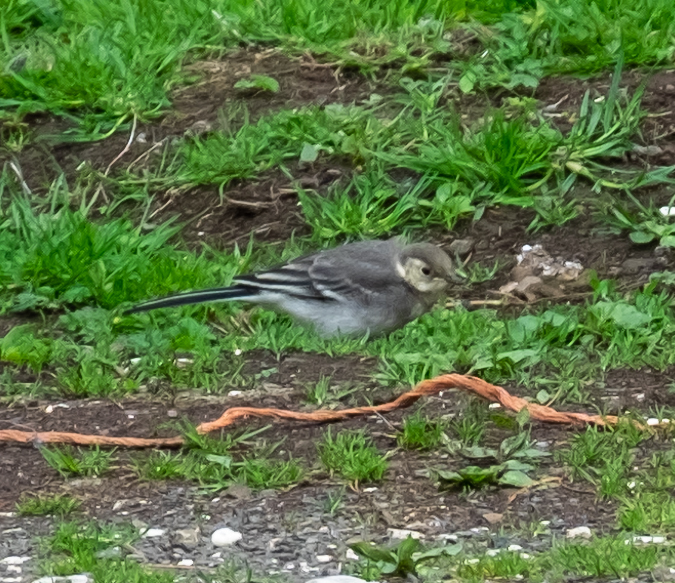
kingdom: Animalia
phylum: Chordata
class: Aves
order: Passeriformes
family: Motacillidae
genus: Motacilla
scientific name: Motacilla alba
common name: White wagtail
